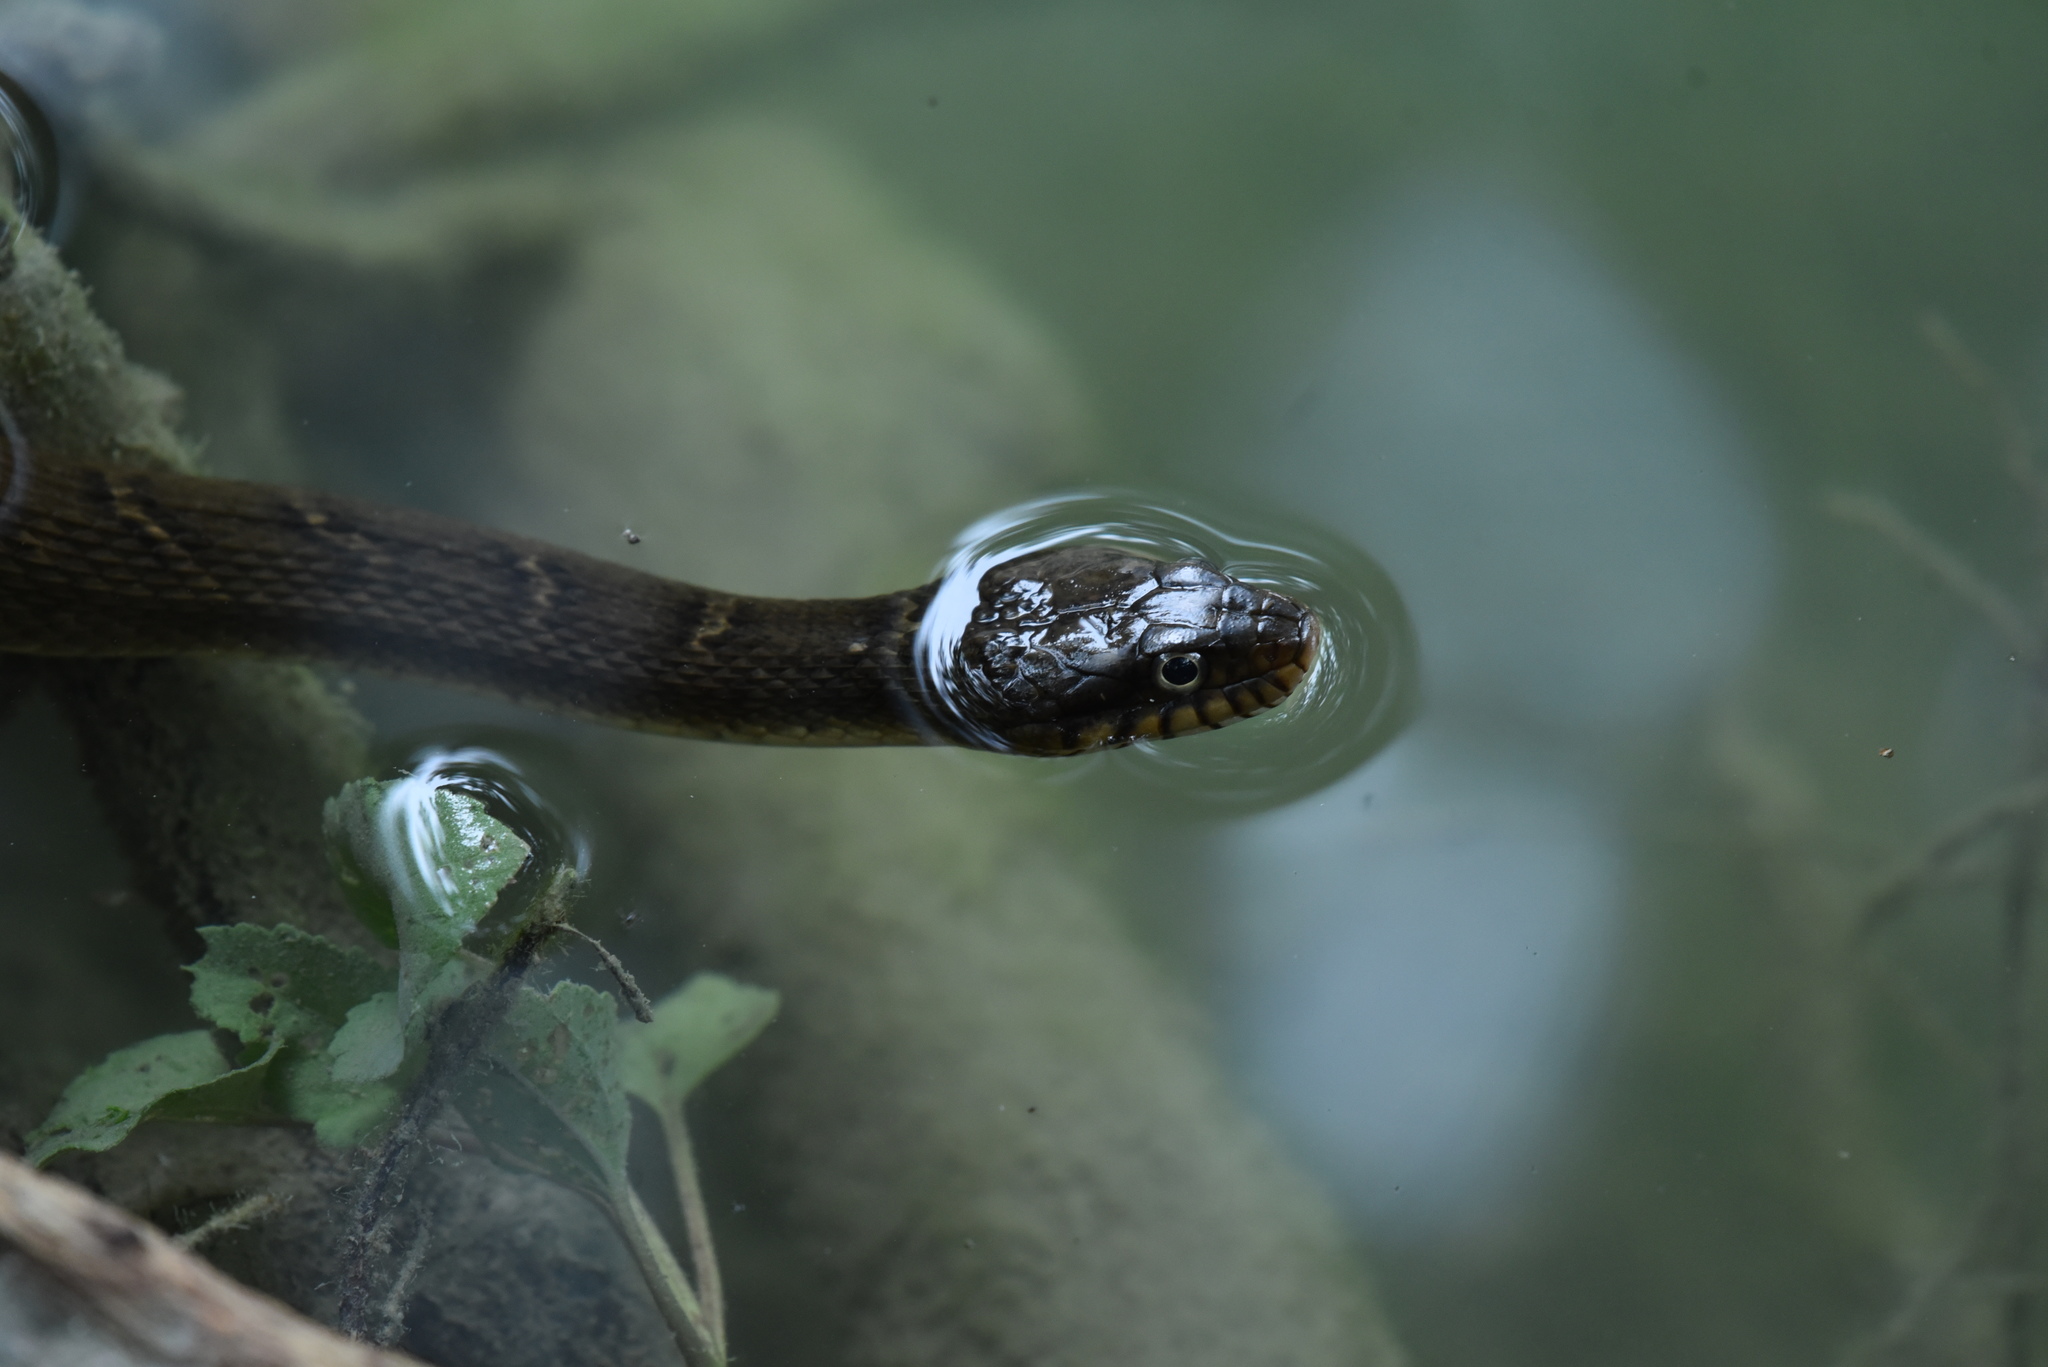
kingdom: Animalia
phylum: Chordata
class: Squamata
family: Colubridae
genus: Nerodia
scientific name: Nerodia erythrogaster
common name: Plainbelly water snake
